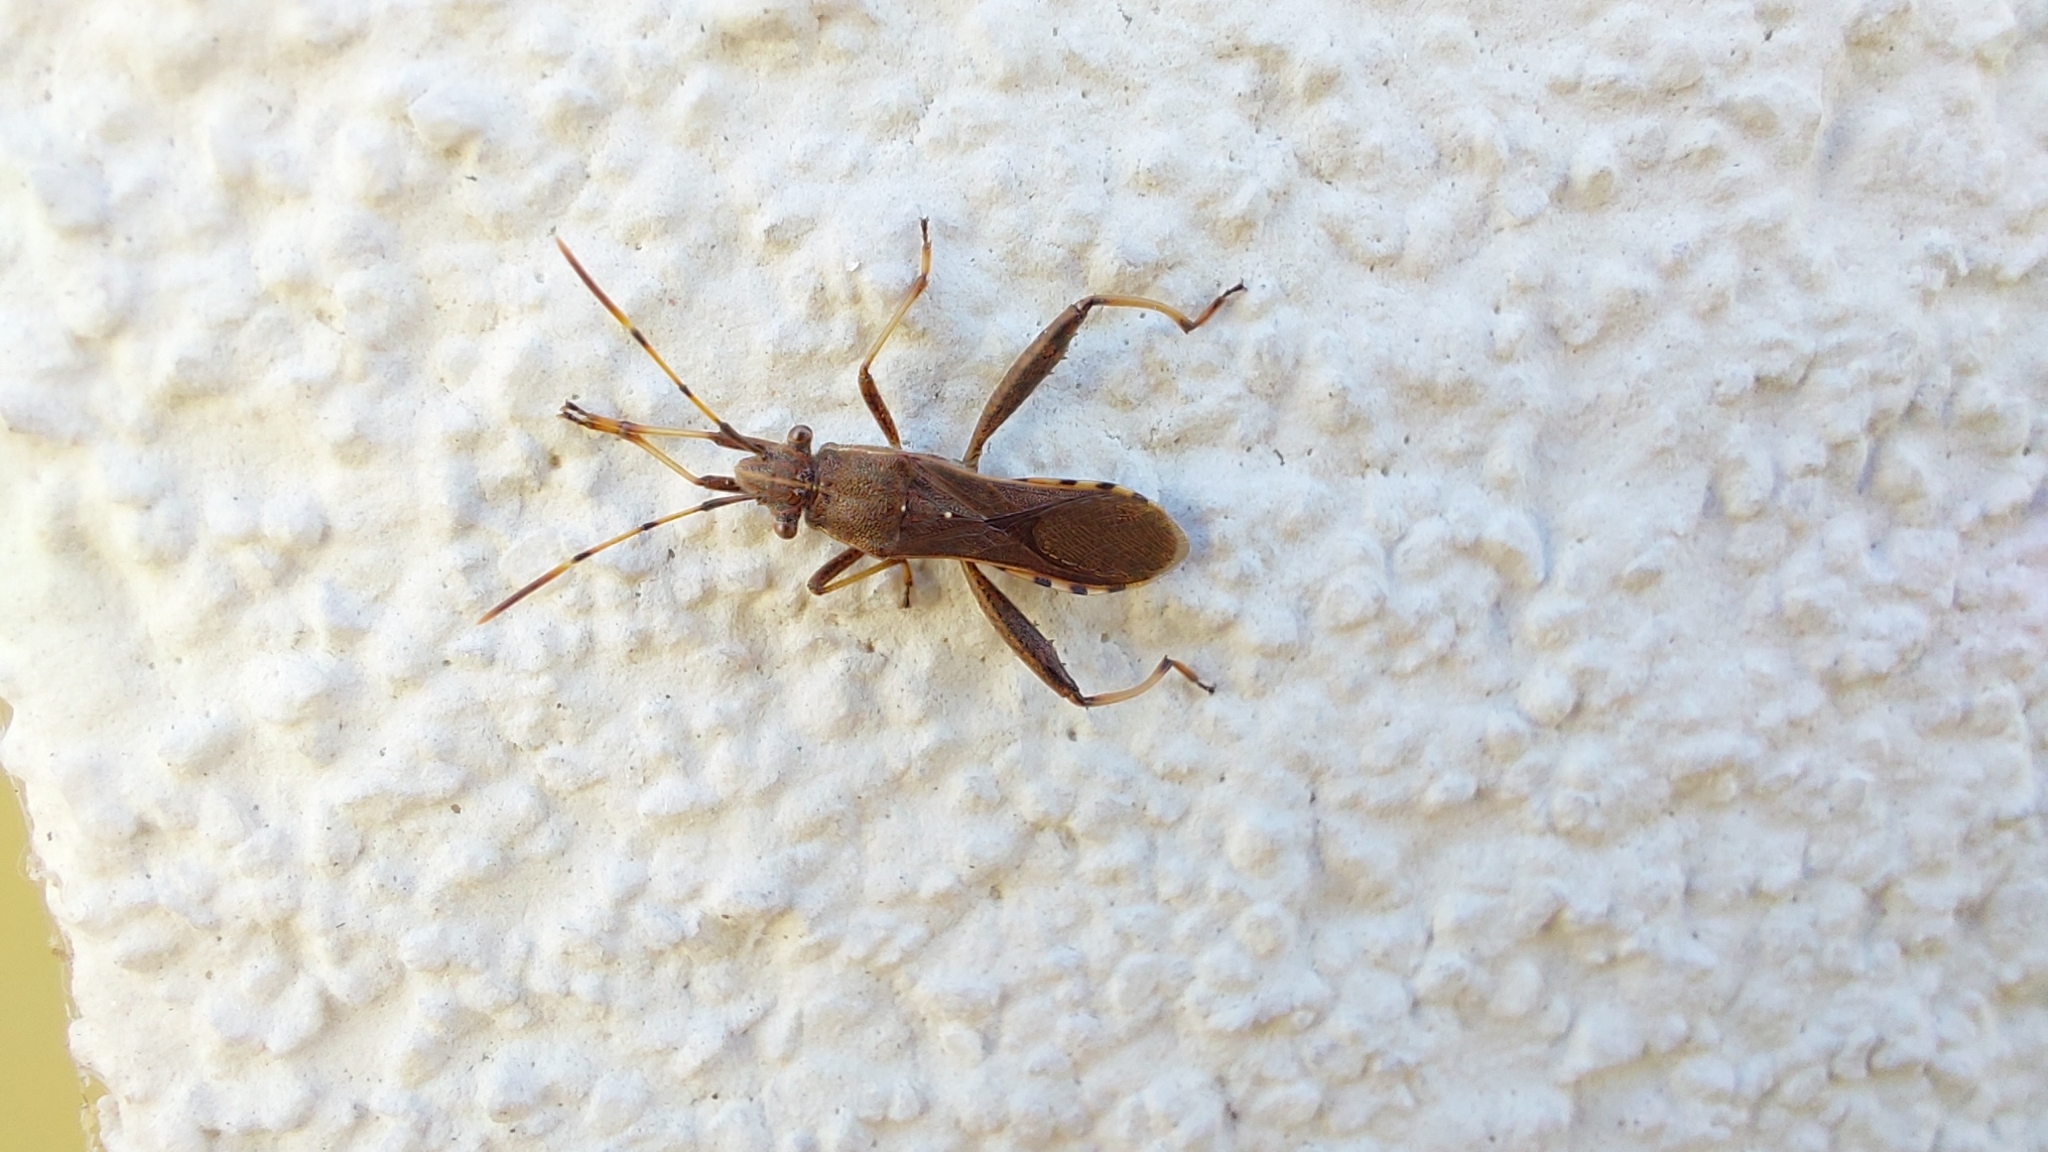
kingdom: Animalia
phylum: Arthropoda
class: Insecta
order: Hemiptera
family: Alydidae
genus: Camptopus
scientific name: Camptopus lateralis
